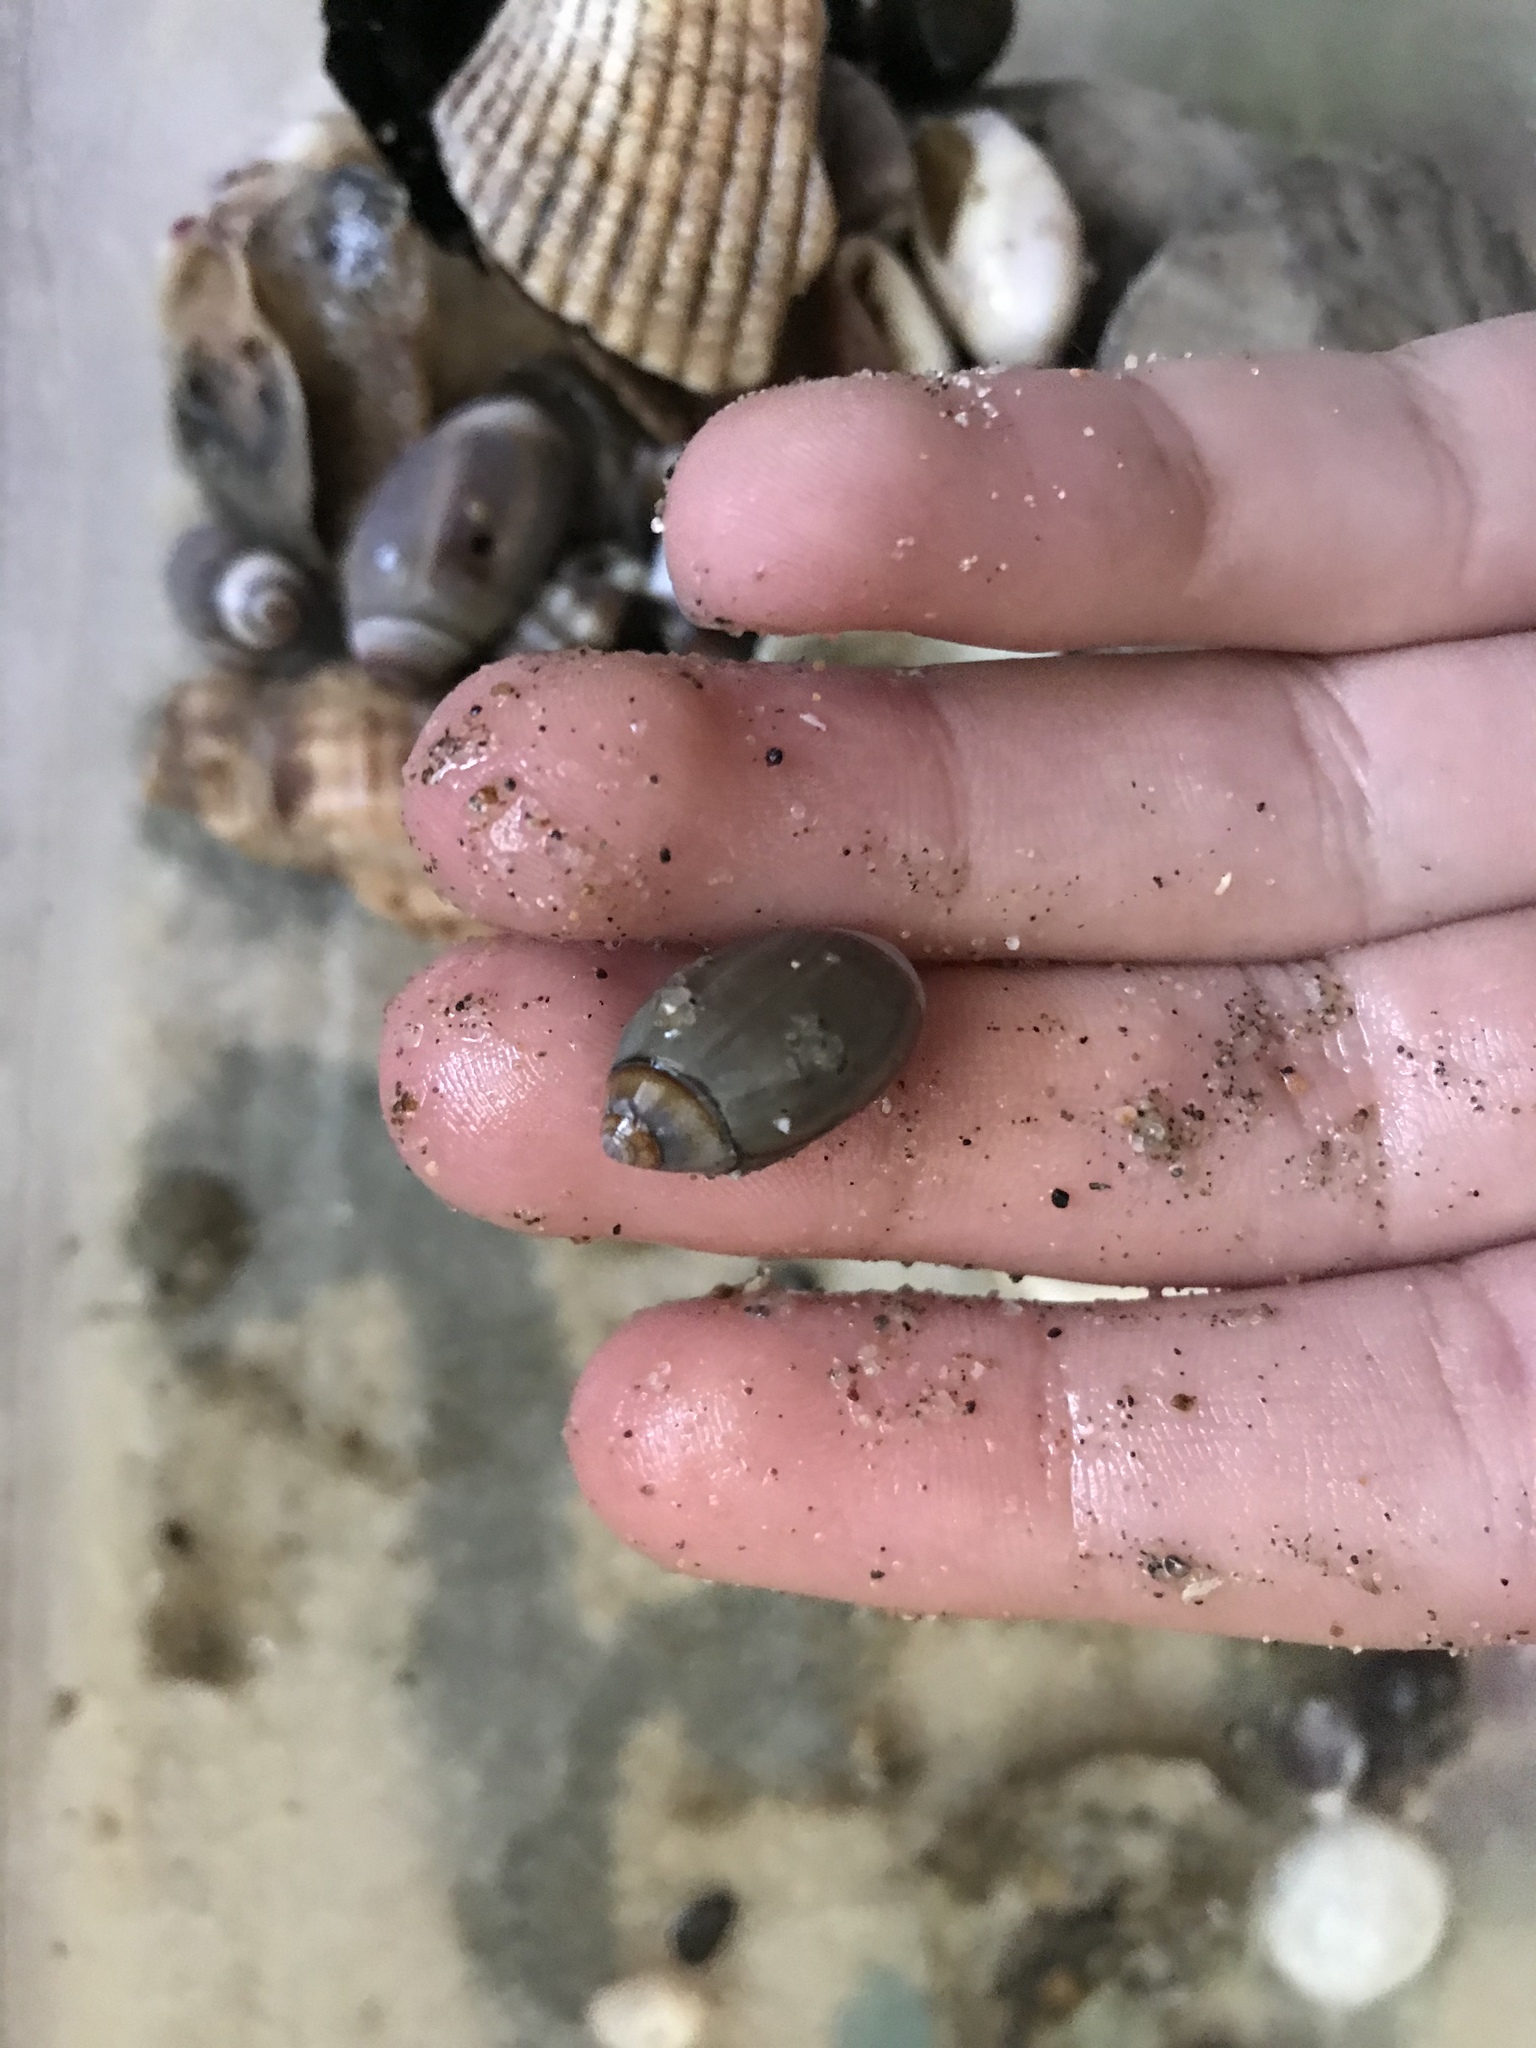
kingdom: Animalia
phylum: Mollusca
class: Gastropoda
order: Neogastropoda
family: Olividae
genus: Callianax
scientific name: Callianax biplicata
